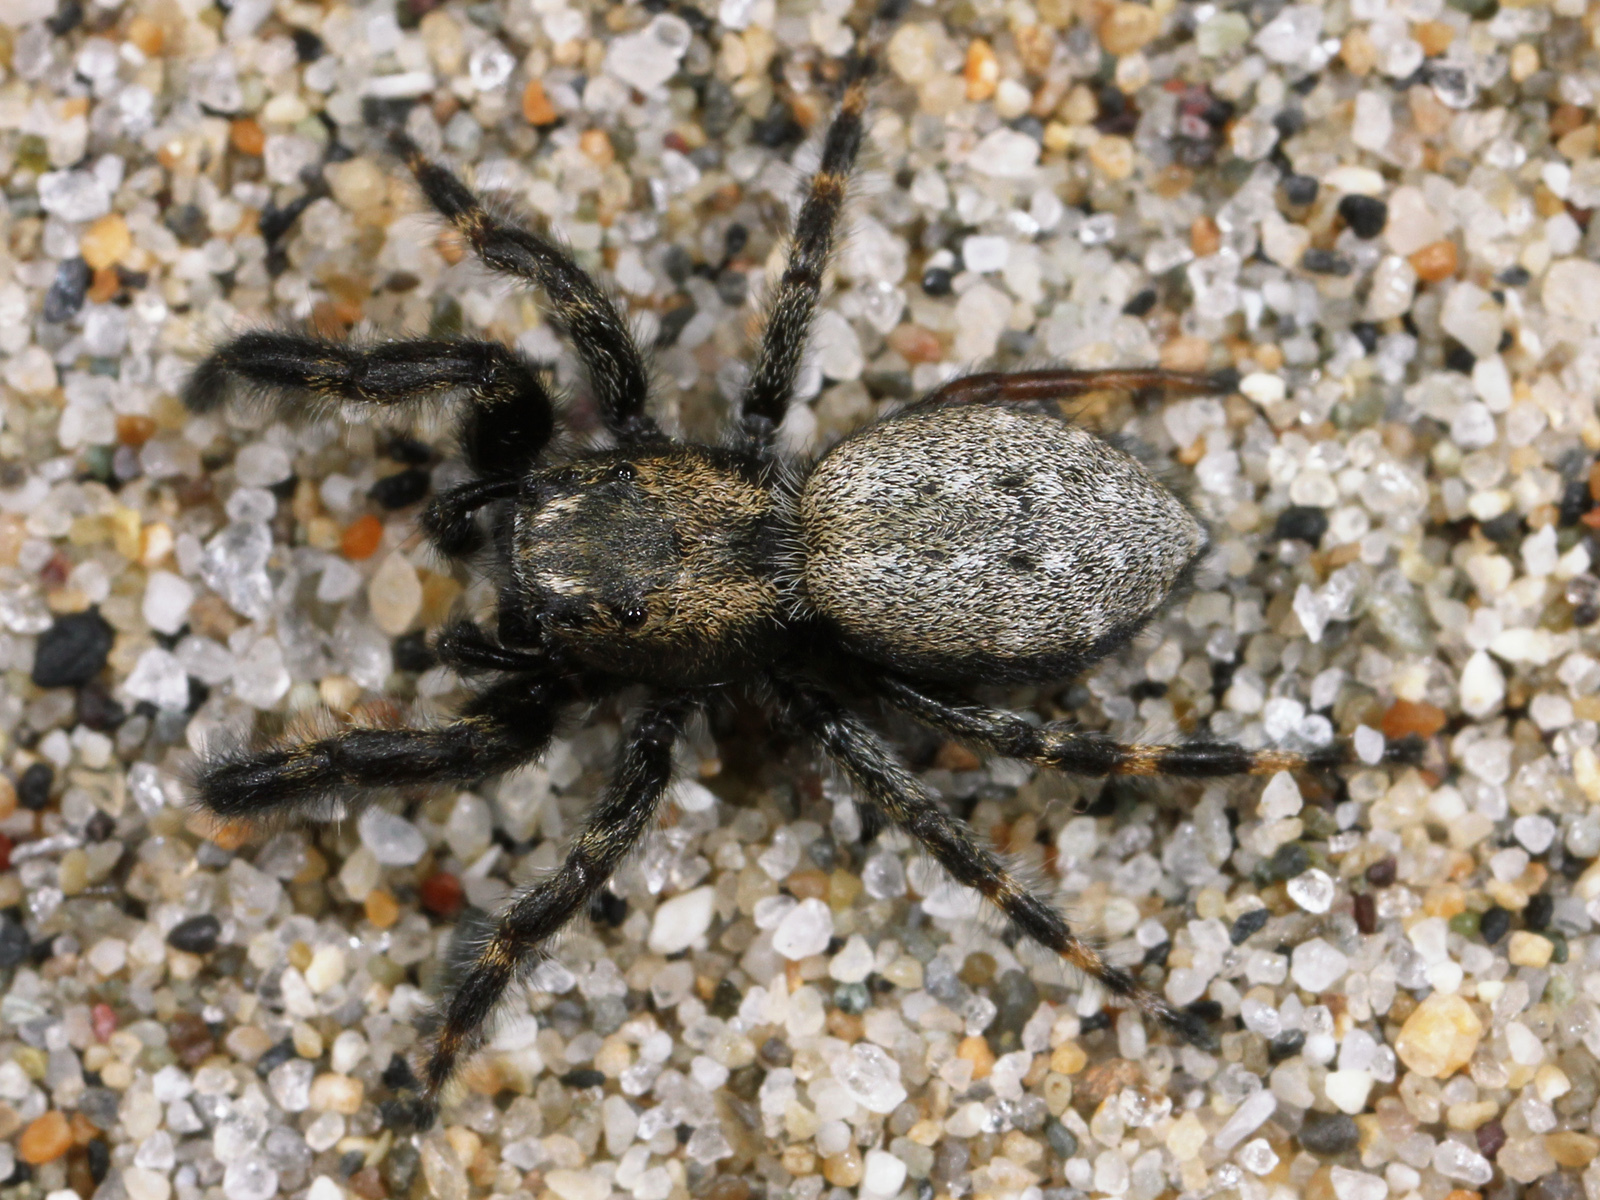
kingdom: Animalia
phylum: Arthropoda
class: Arachnida
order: Araneae
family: Salticidae
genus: Terralonus
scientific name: Terralonus californicus
